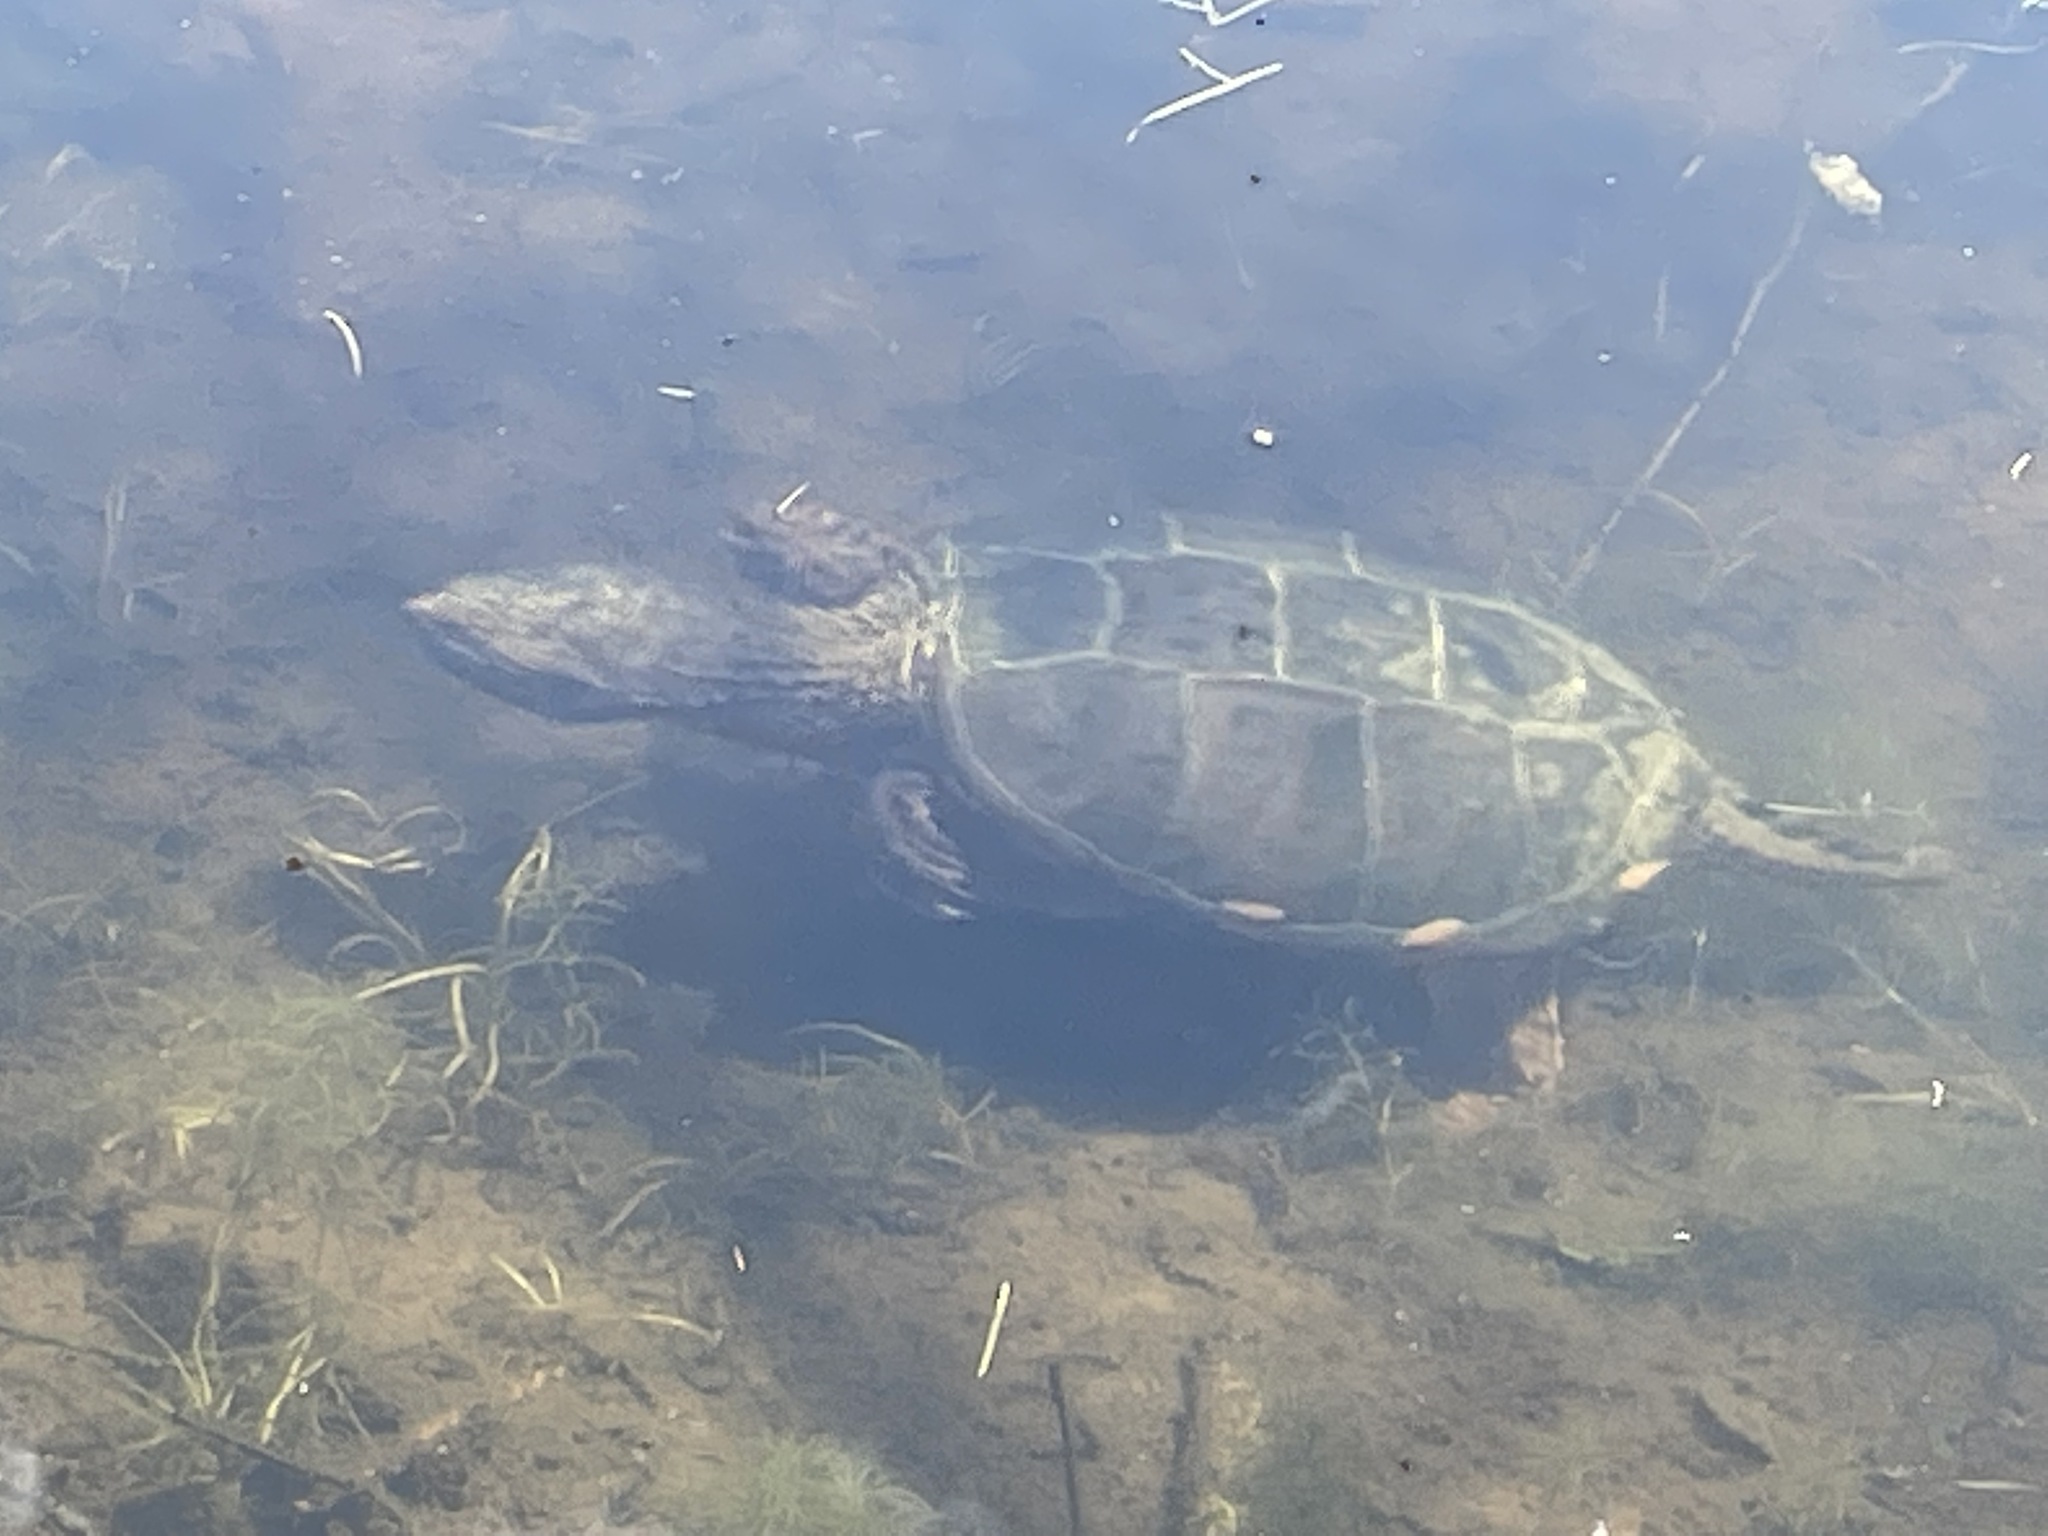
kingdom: Animalia
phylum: Chordata
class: Testudines
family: Chelydridae
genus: Chelydra
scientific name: Chelydra serpentina
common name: Common snapping turtle
